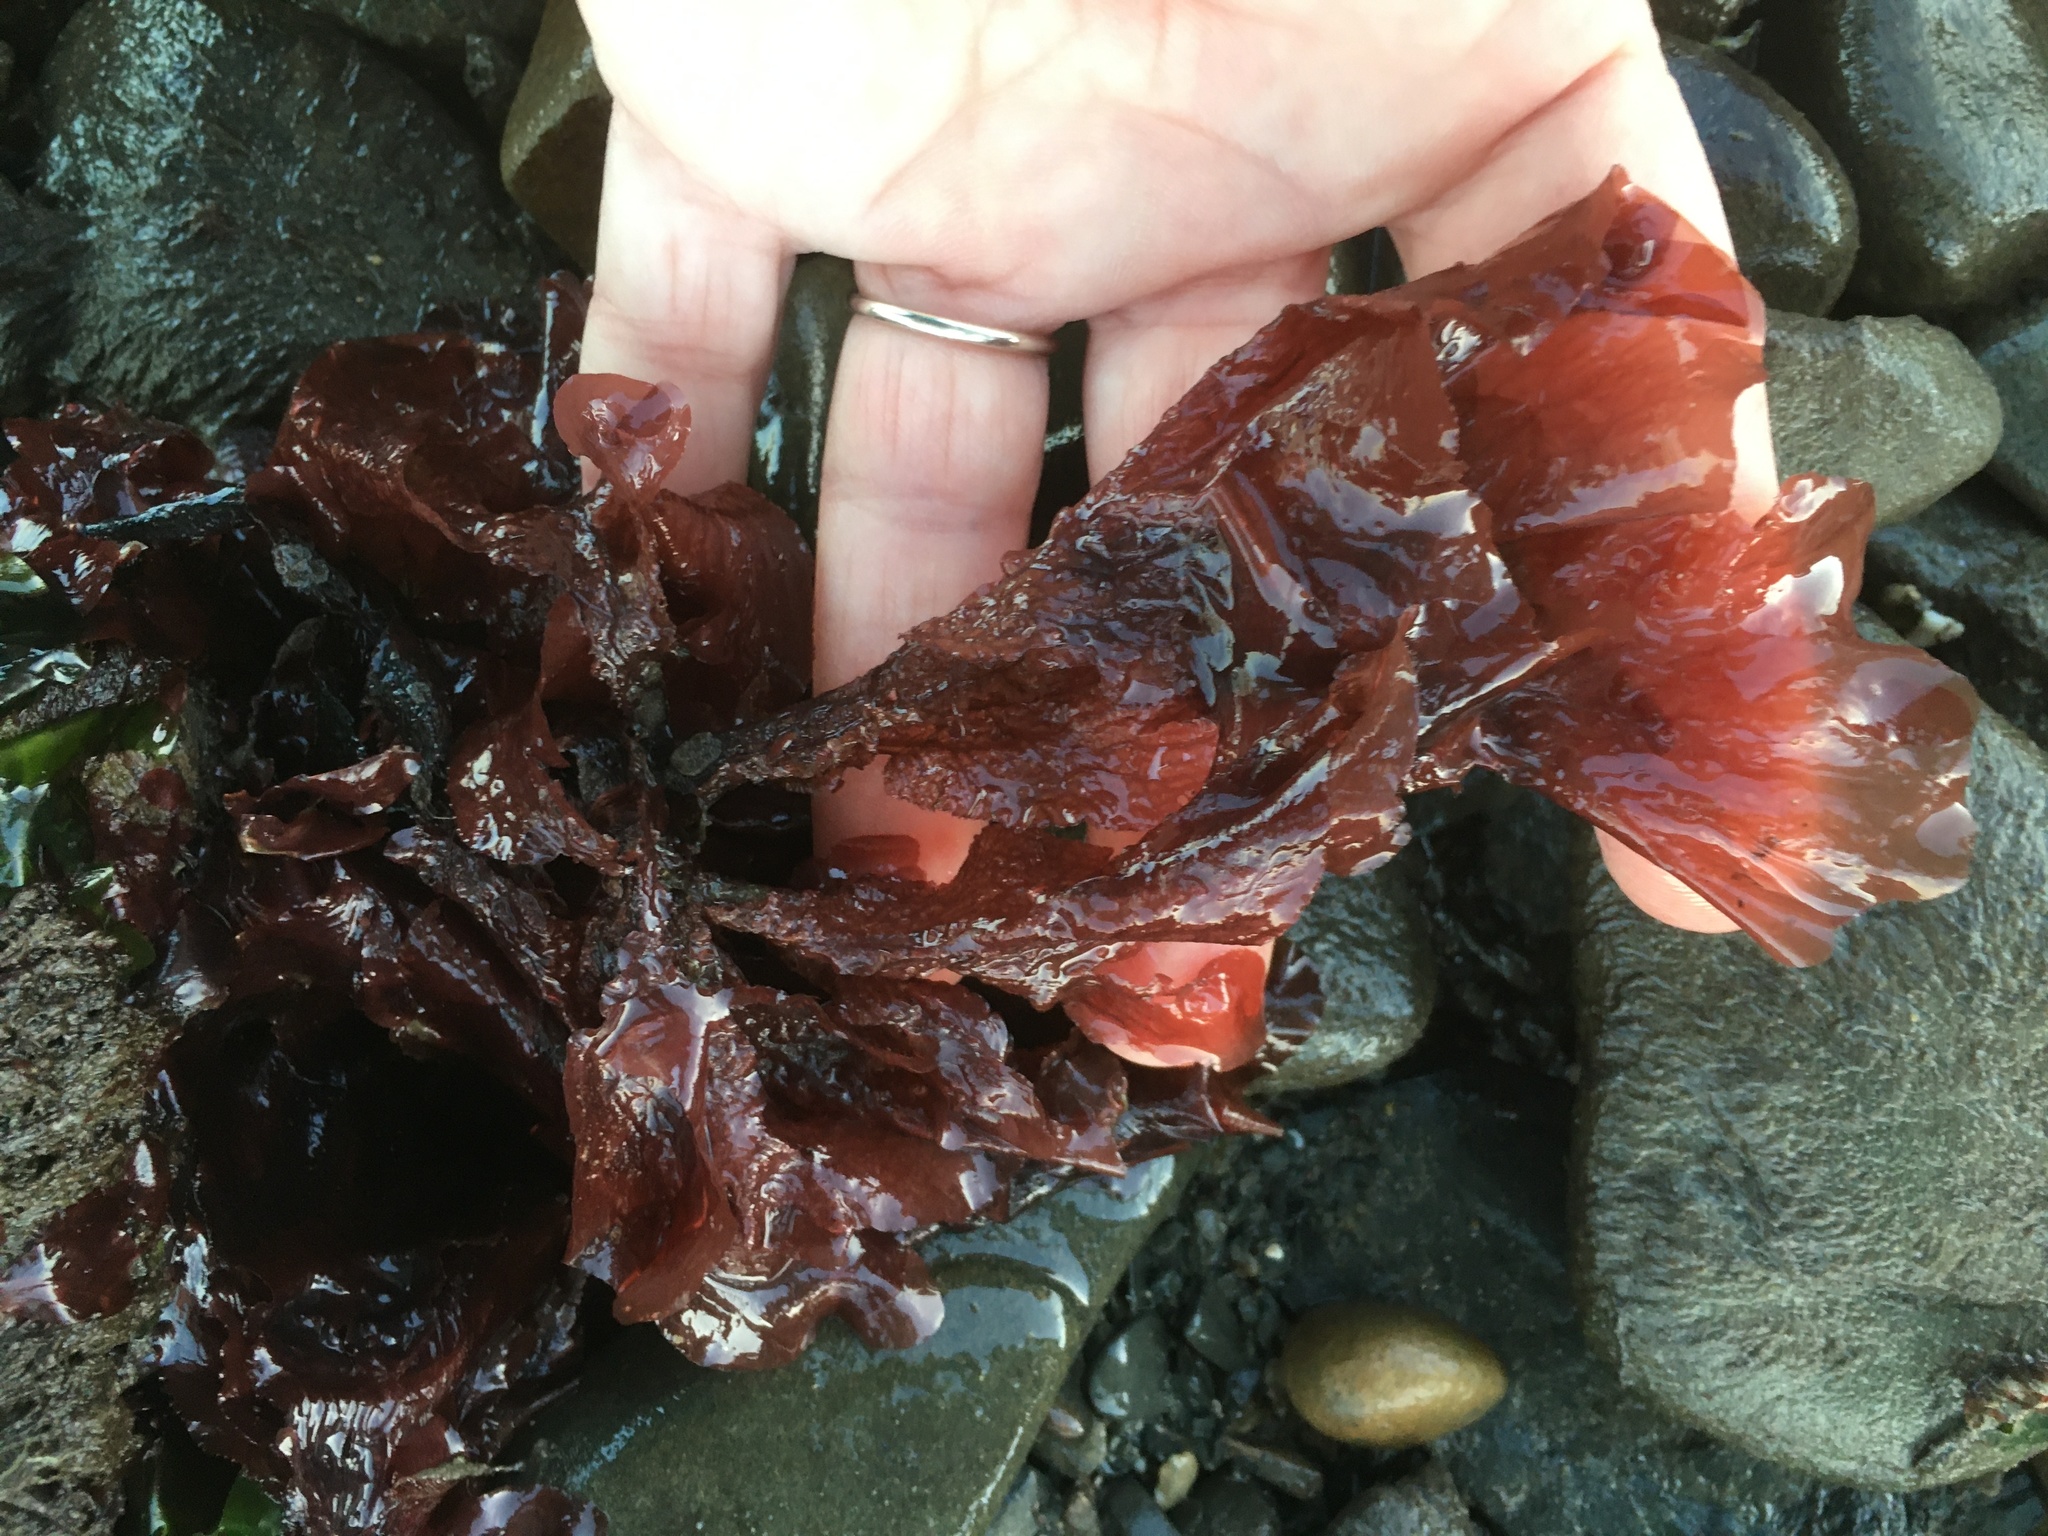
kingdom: Plantae
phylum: Rhodophyta
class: Florideophyceae
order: Ceramiales
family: Delesseriaceae
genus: Polyneura
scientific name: Polyneura latissima
